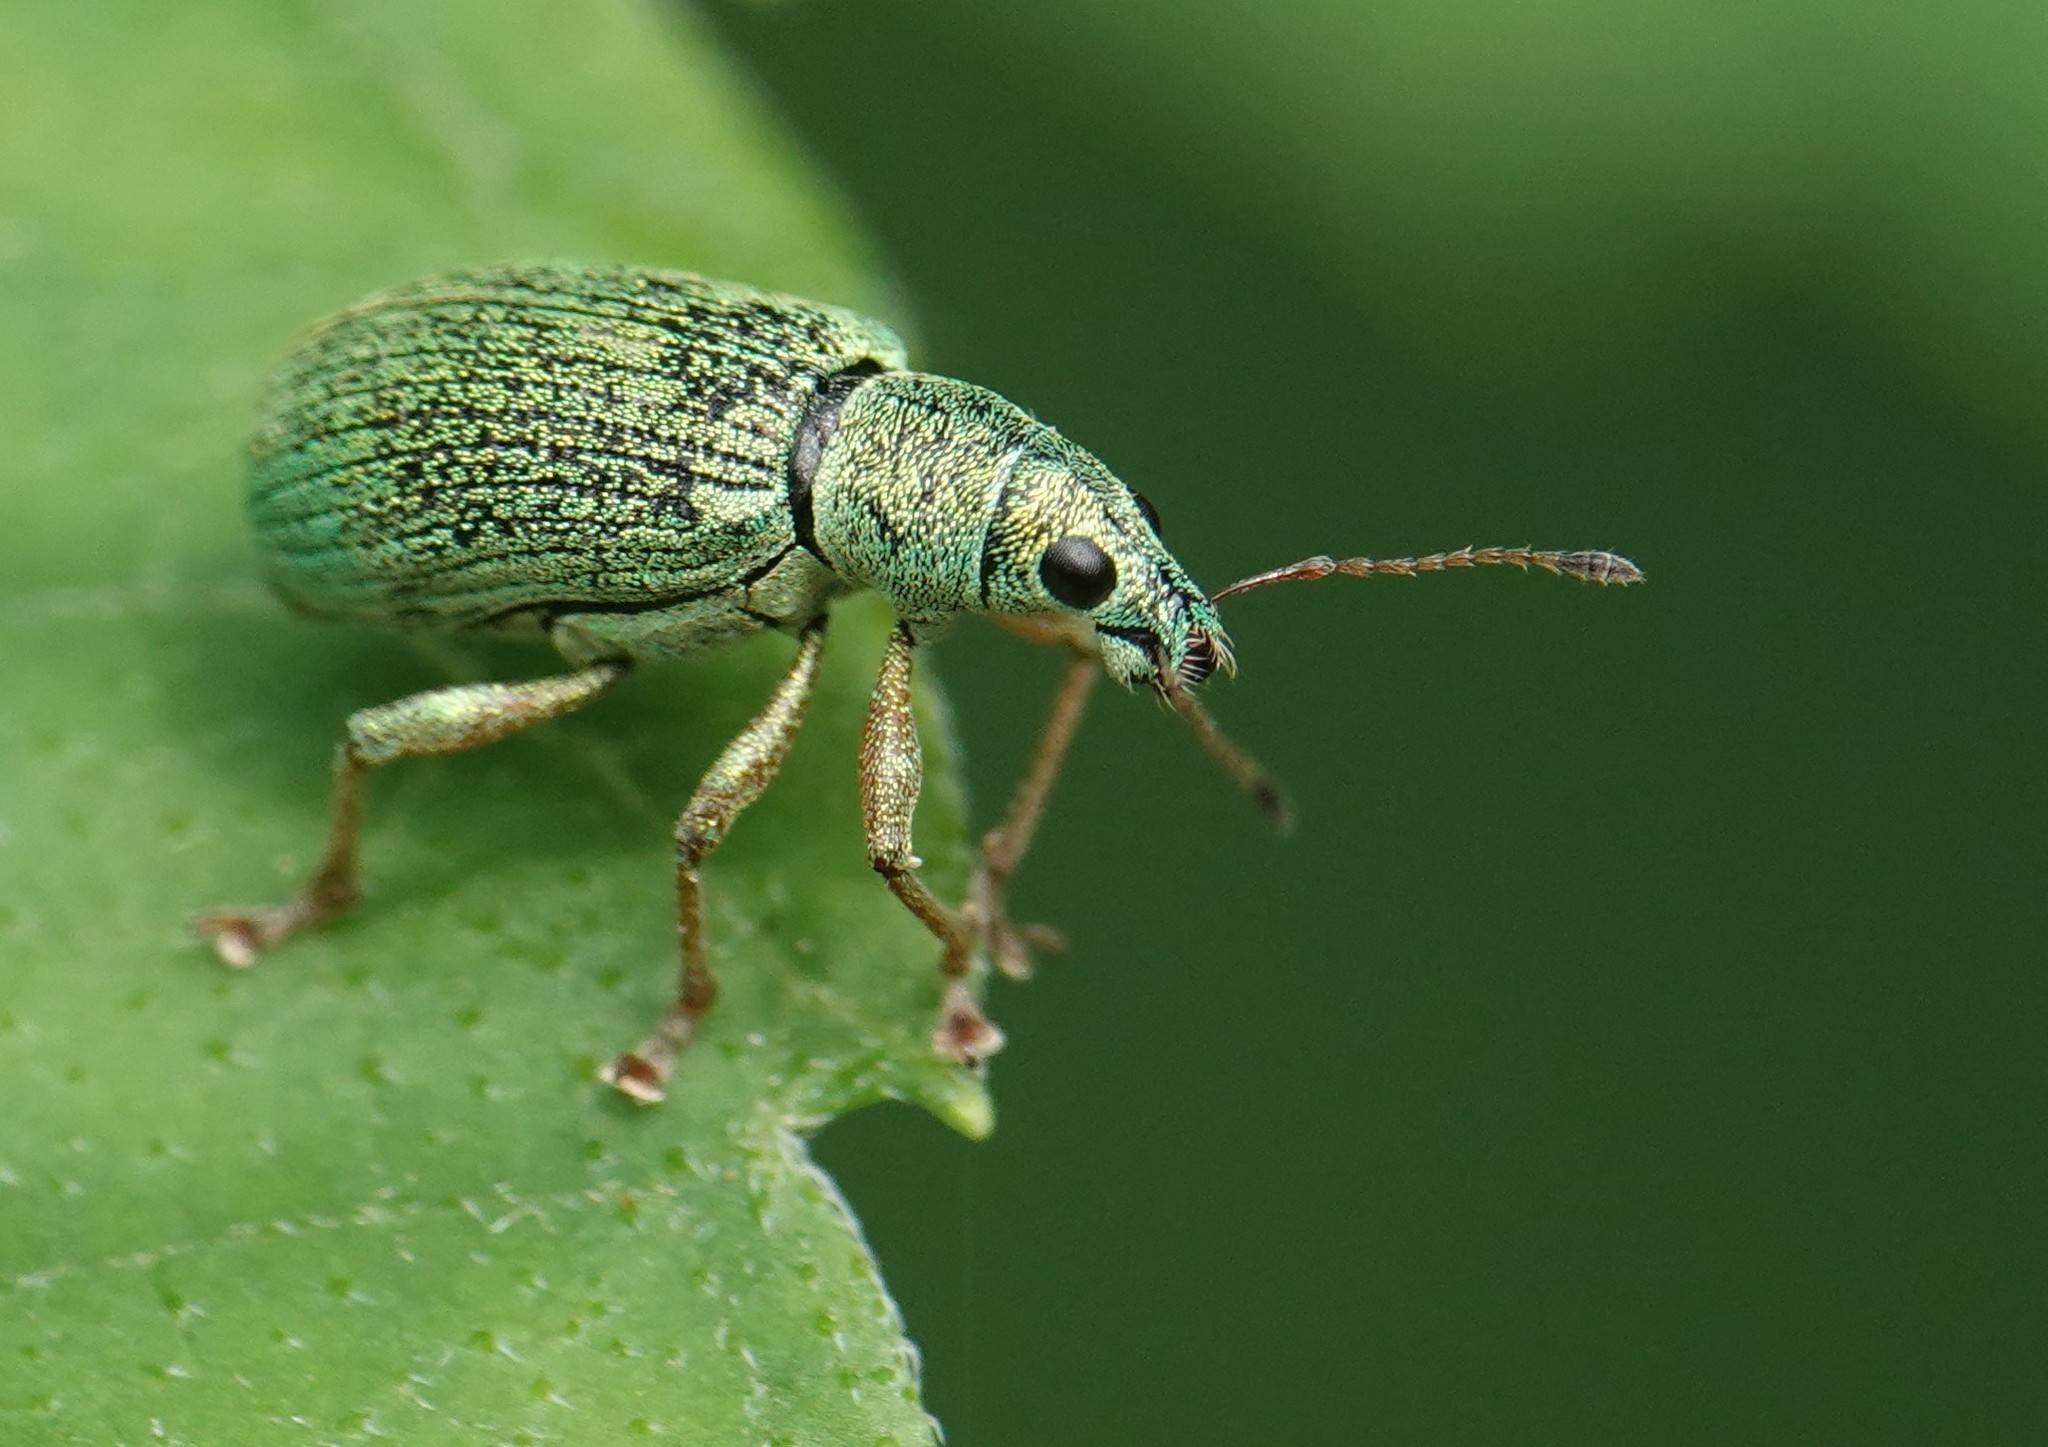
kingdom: Animalia
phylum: Arthropoda
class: Insecta
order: Coleoptera
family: Curculionidae
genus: Polydrusus
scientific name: Polydrusus formosus
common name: Weevil
